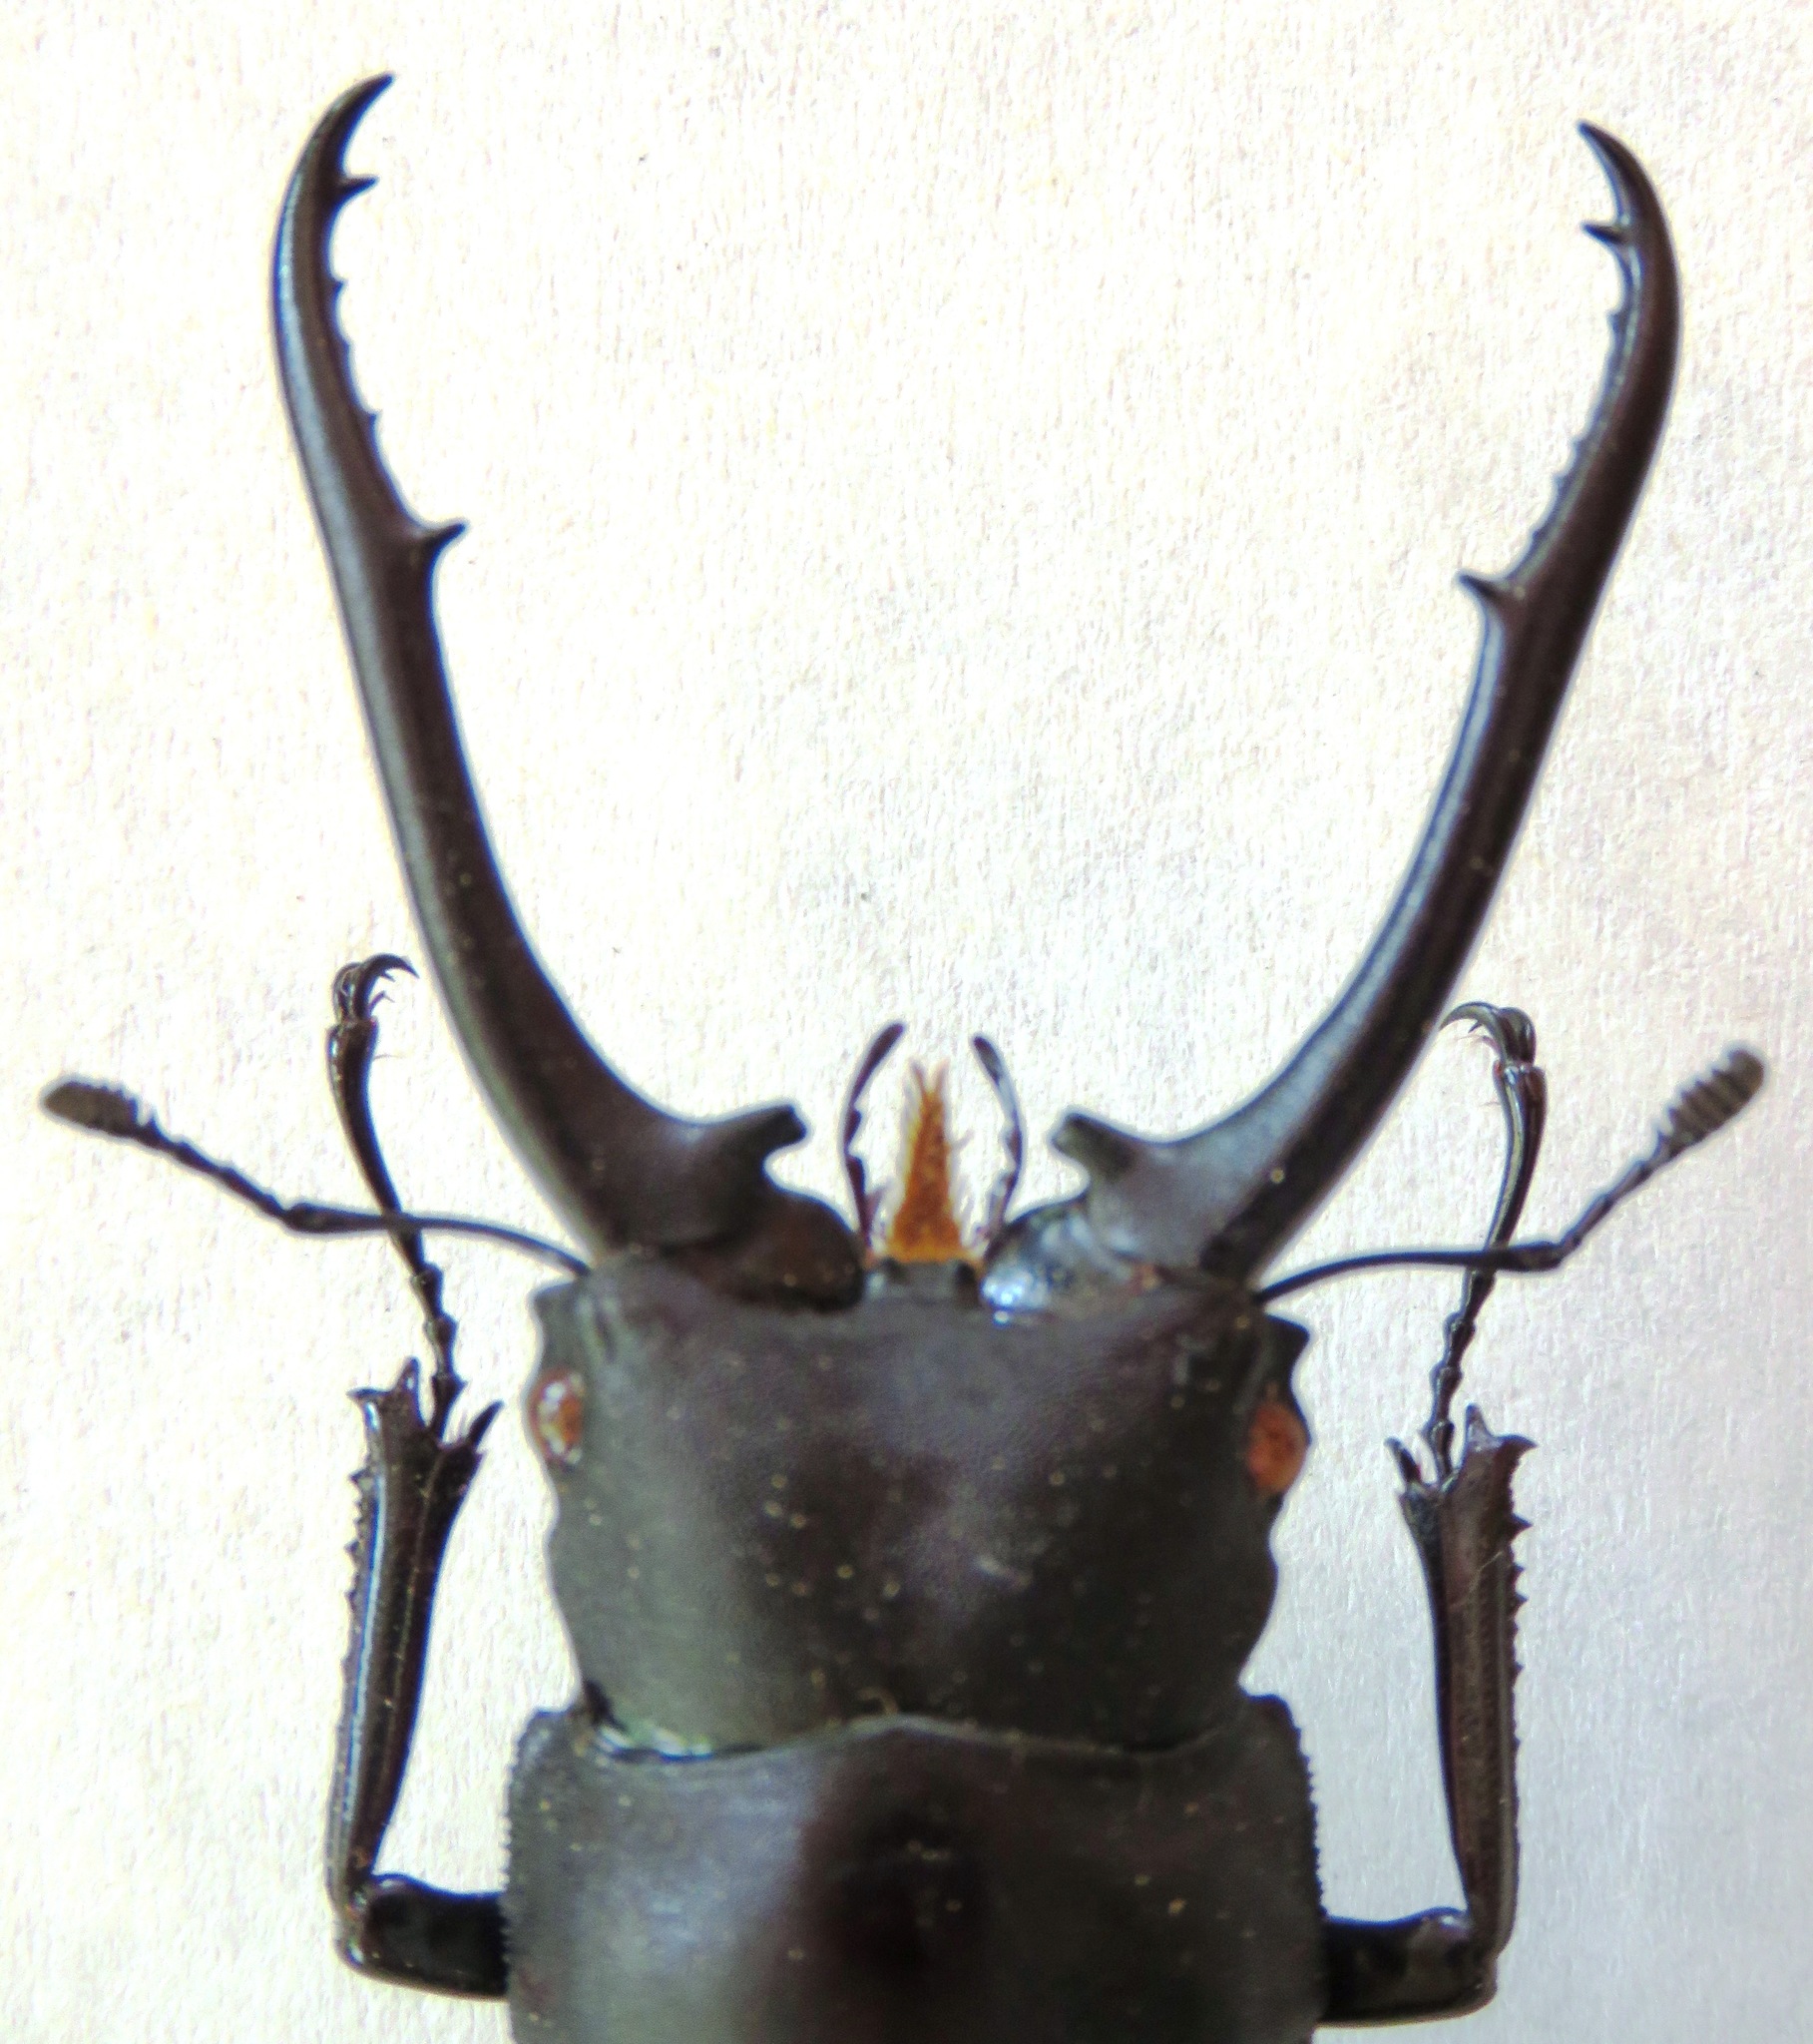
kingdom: Animalia
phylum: Arthropoda
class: Insecta
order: Coleoptera
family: Lucanidae
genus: Hexarthrius
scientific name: Hexarthrius vitalisi
